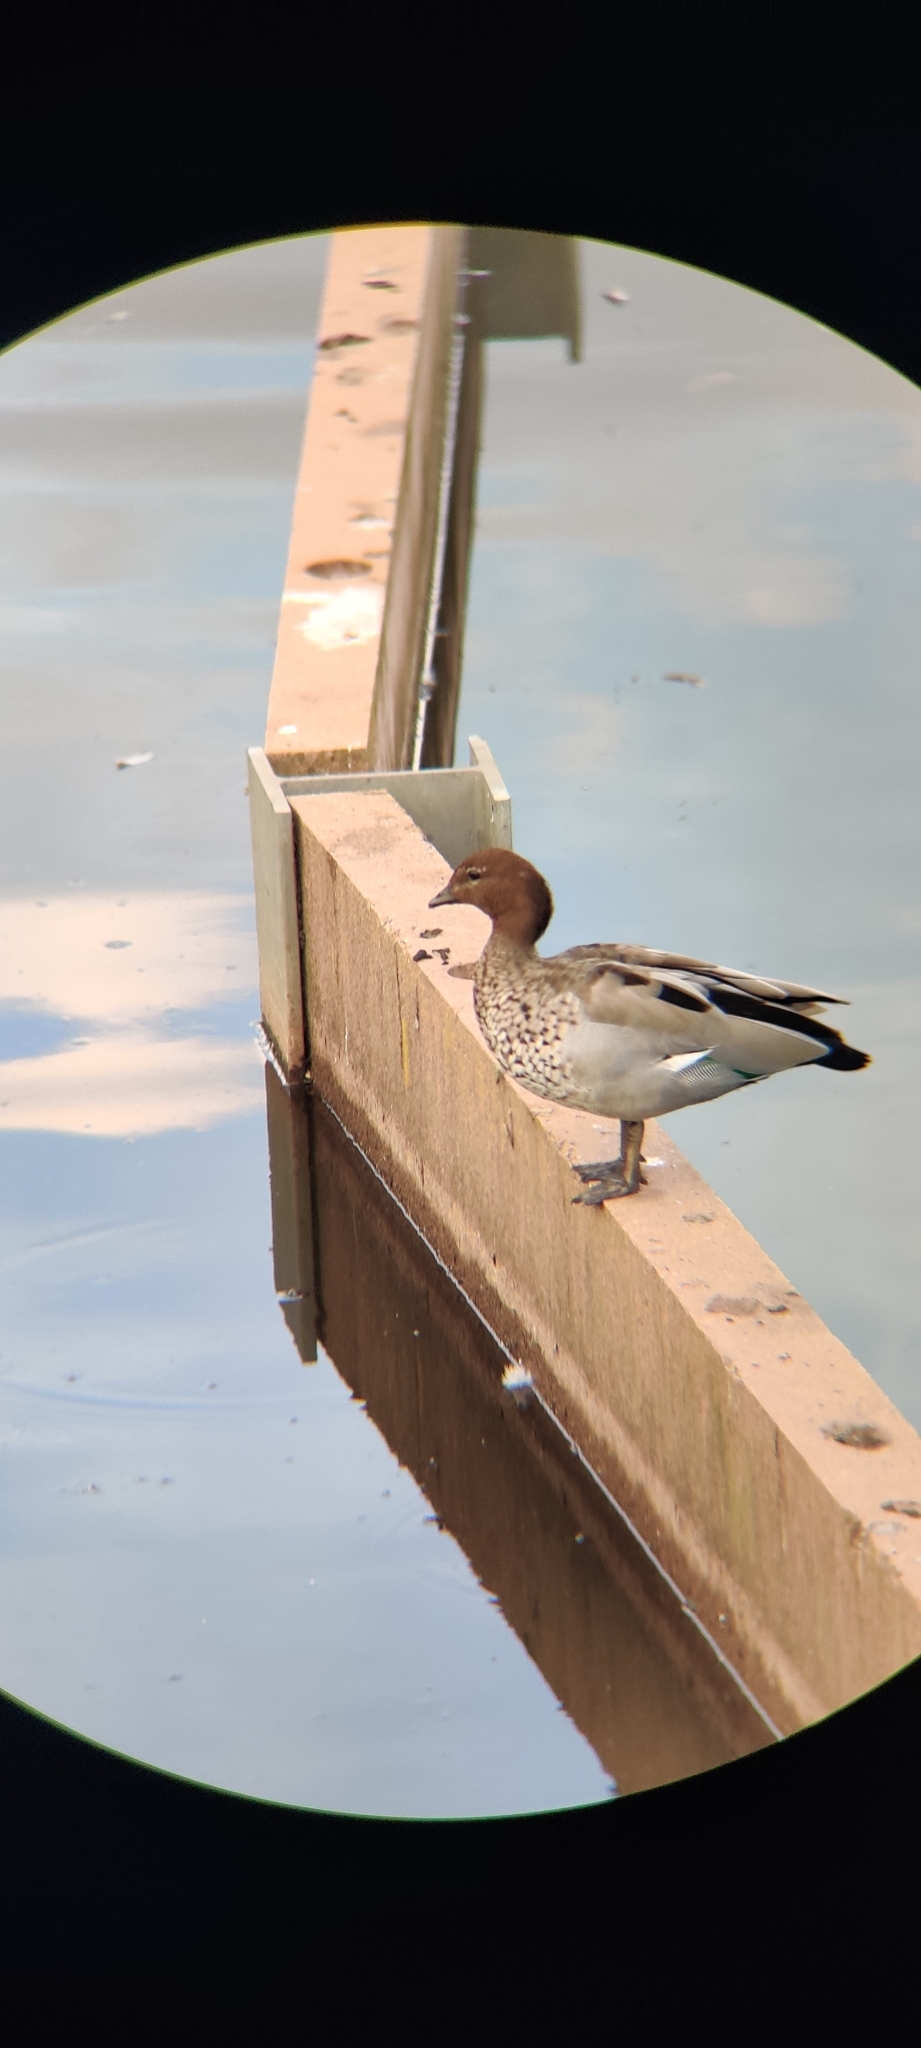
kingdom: Animalia
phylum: Chordata
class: Aves
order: Anseriformes
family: Anatidae
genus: Chenonetta
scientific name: Chenonetta jubata
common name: Maned duck
